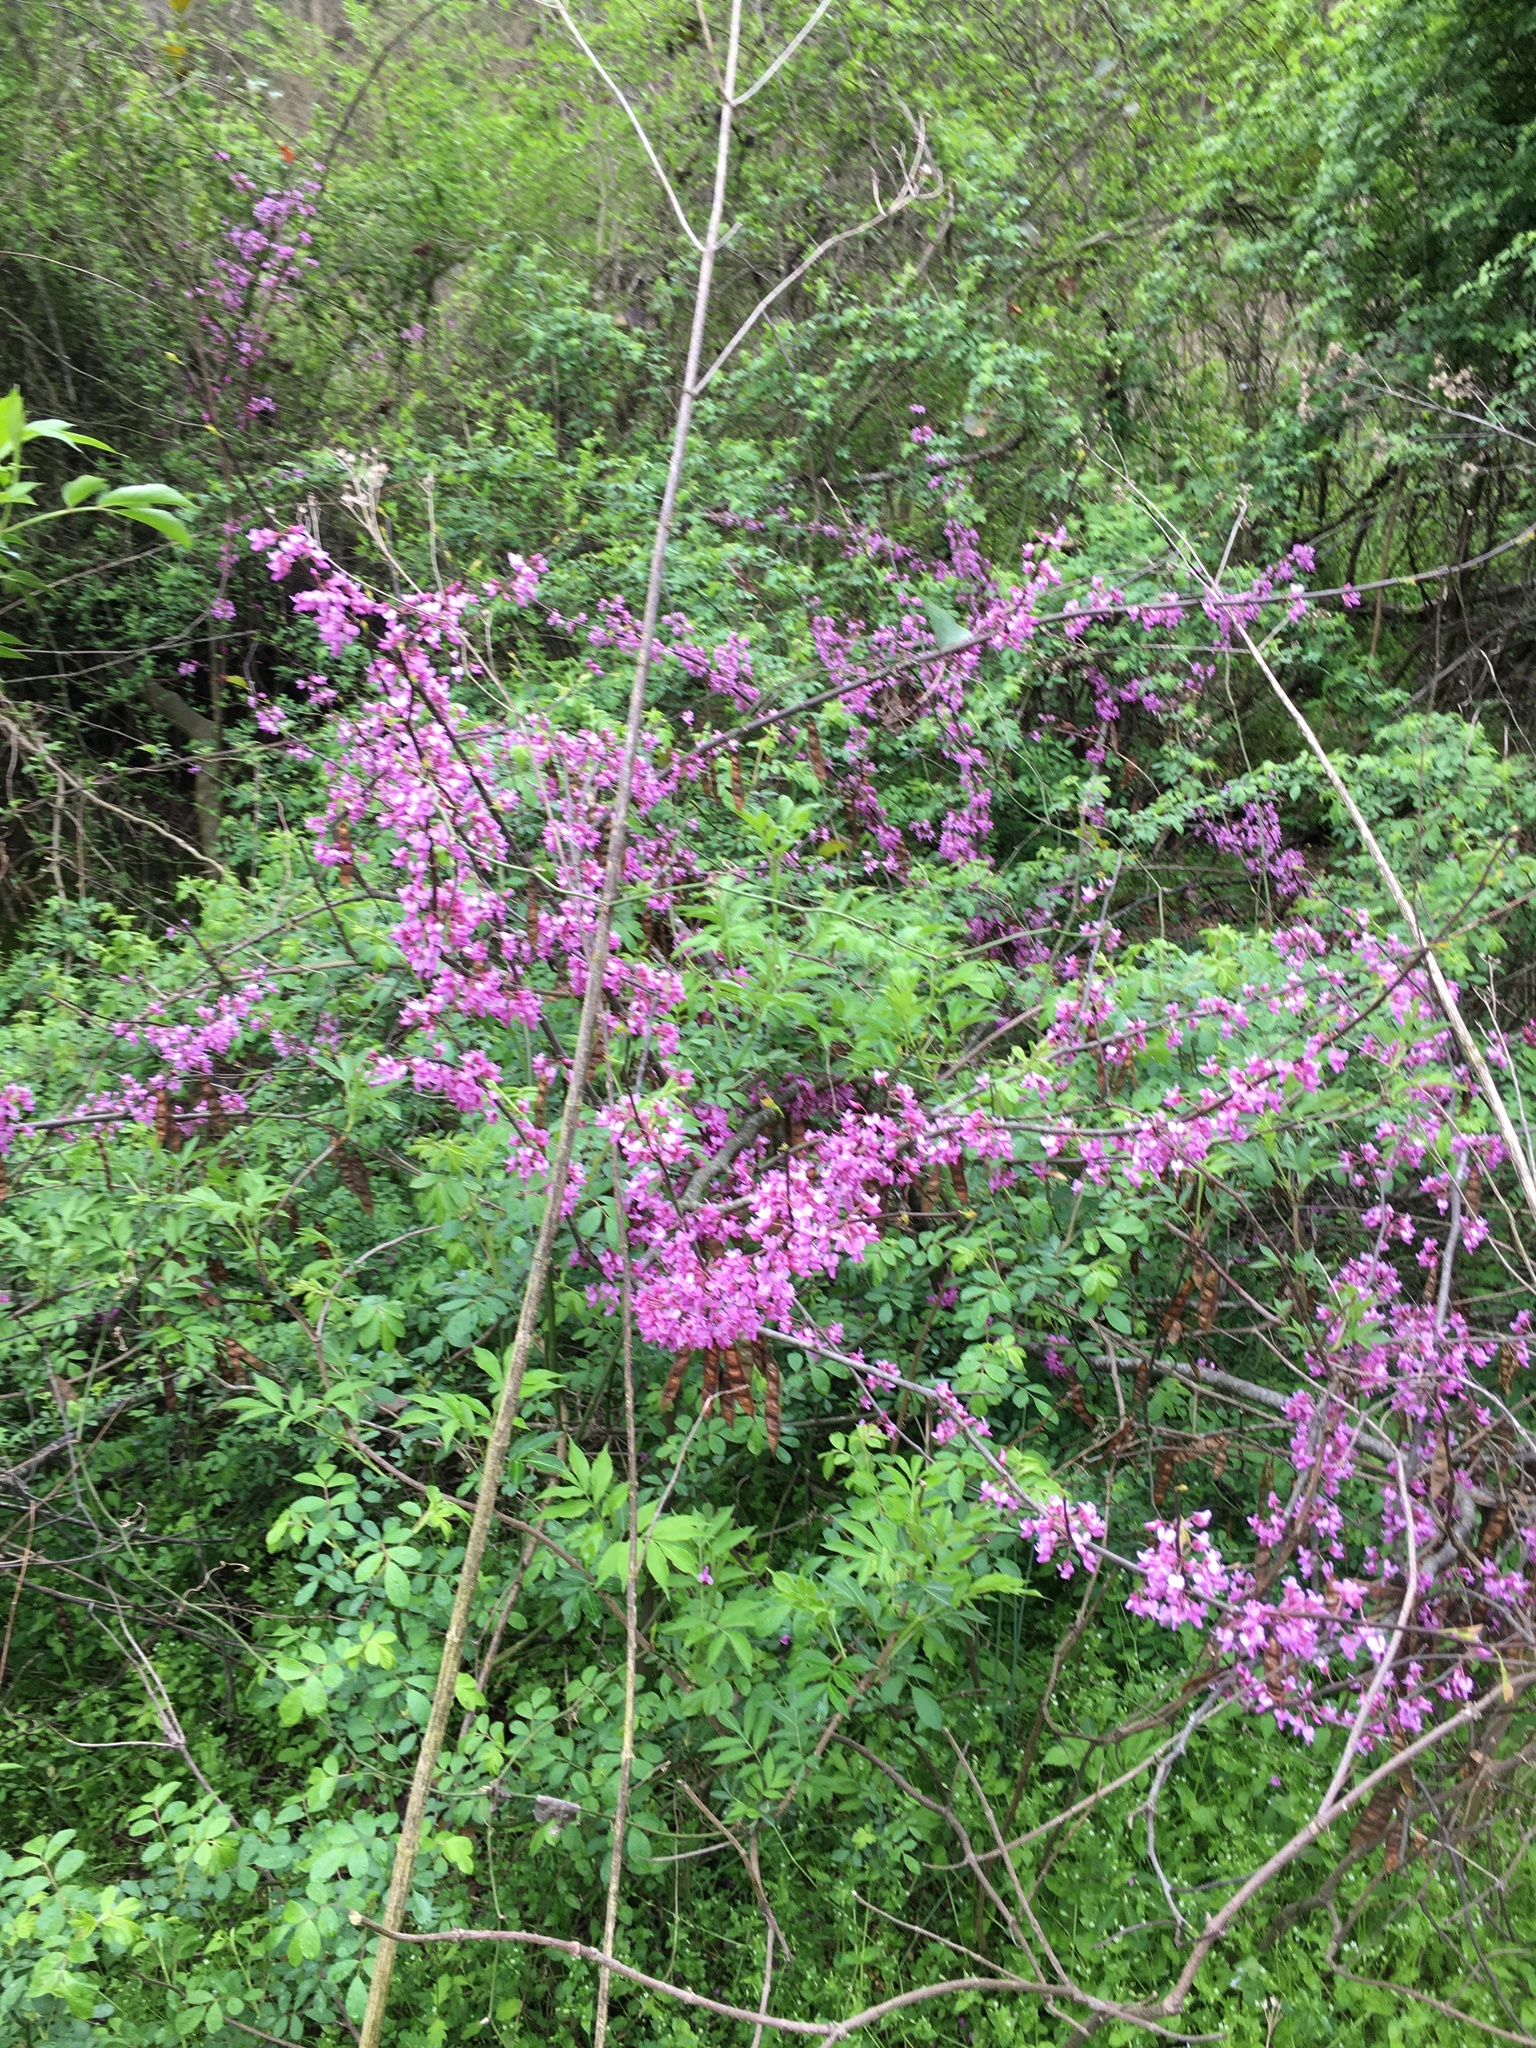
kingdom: Plantae
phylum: Tracheophyta
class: Magnoliopsida
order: Fabales
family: Fabaceae
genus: Cercis
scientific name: Cercis canadensis
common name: Eastern redbud
